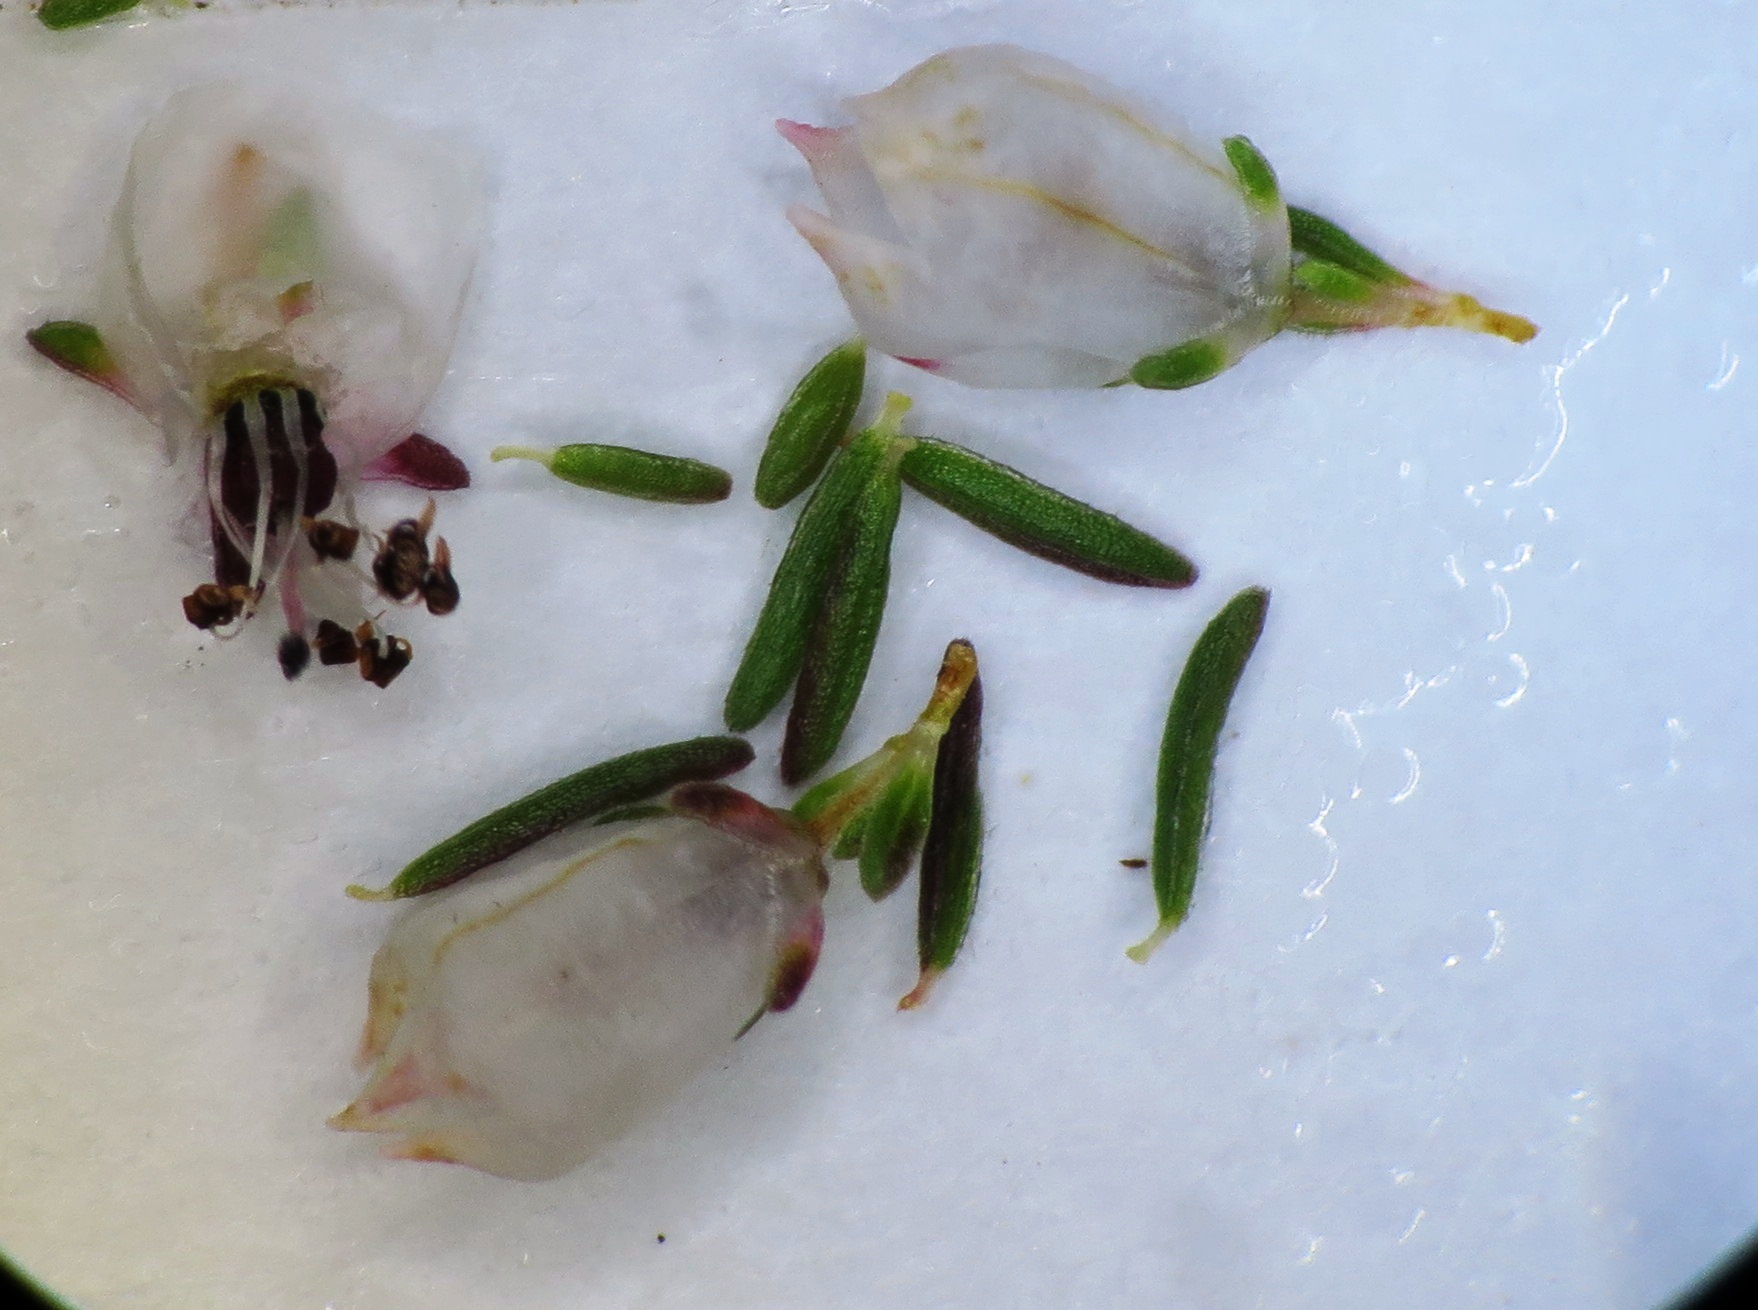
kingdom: Plantae
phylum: Tracheophyta
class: Magnoliopsida
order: Ericales
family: Ericaceae
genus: Erica
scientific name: Erica quadrangularis
